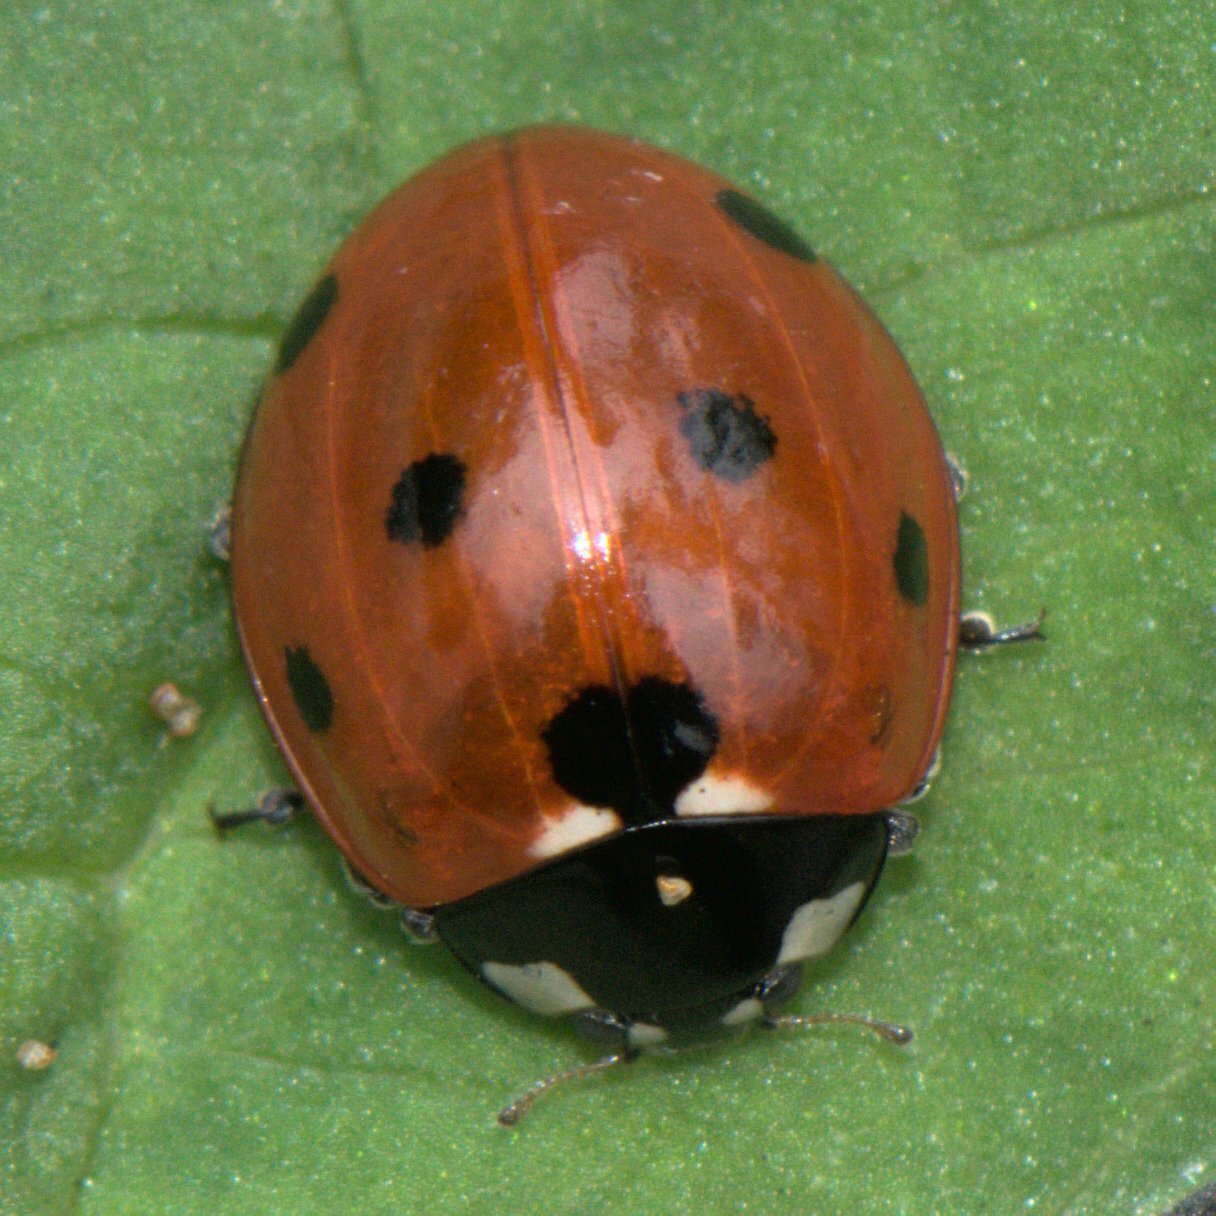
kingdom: Animalia
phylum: Arthropoda
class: Insecta
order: Coleoptera
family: Coccinellidae
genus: Coccinella
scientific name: Coccinella septempunctata
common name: Sevenspotted lady beetle
